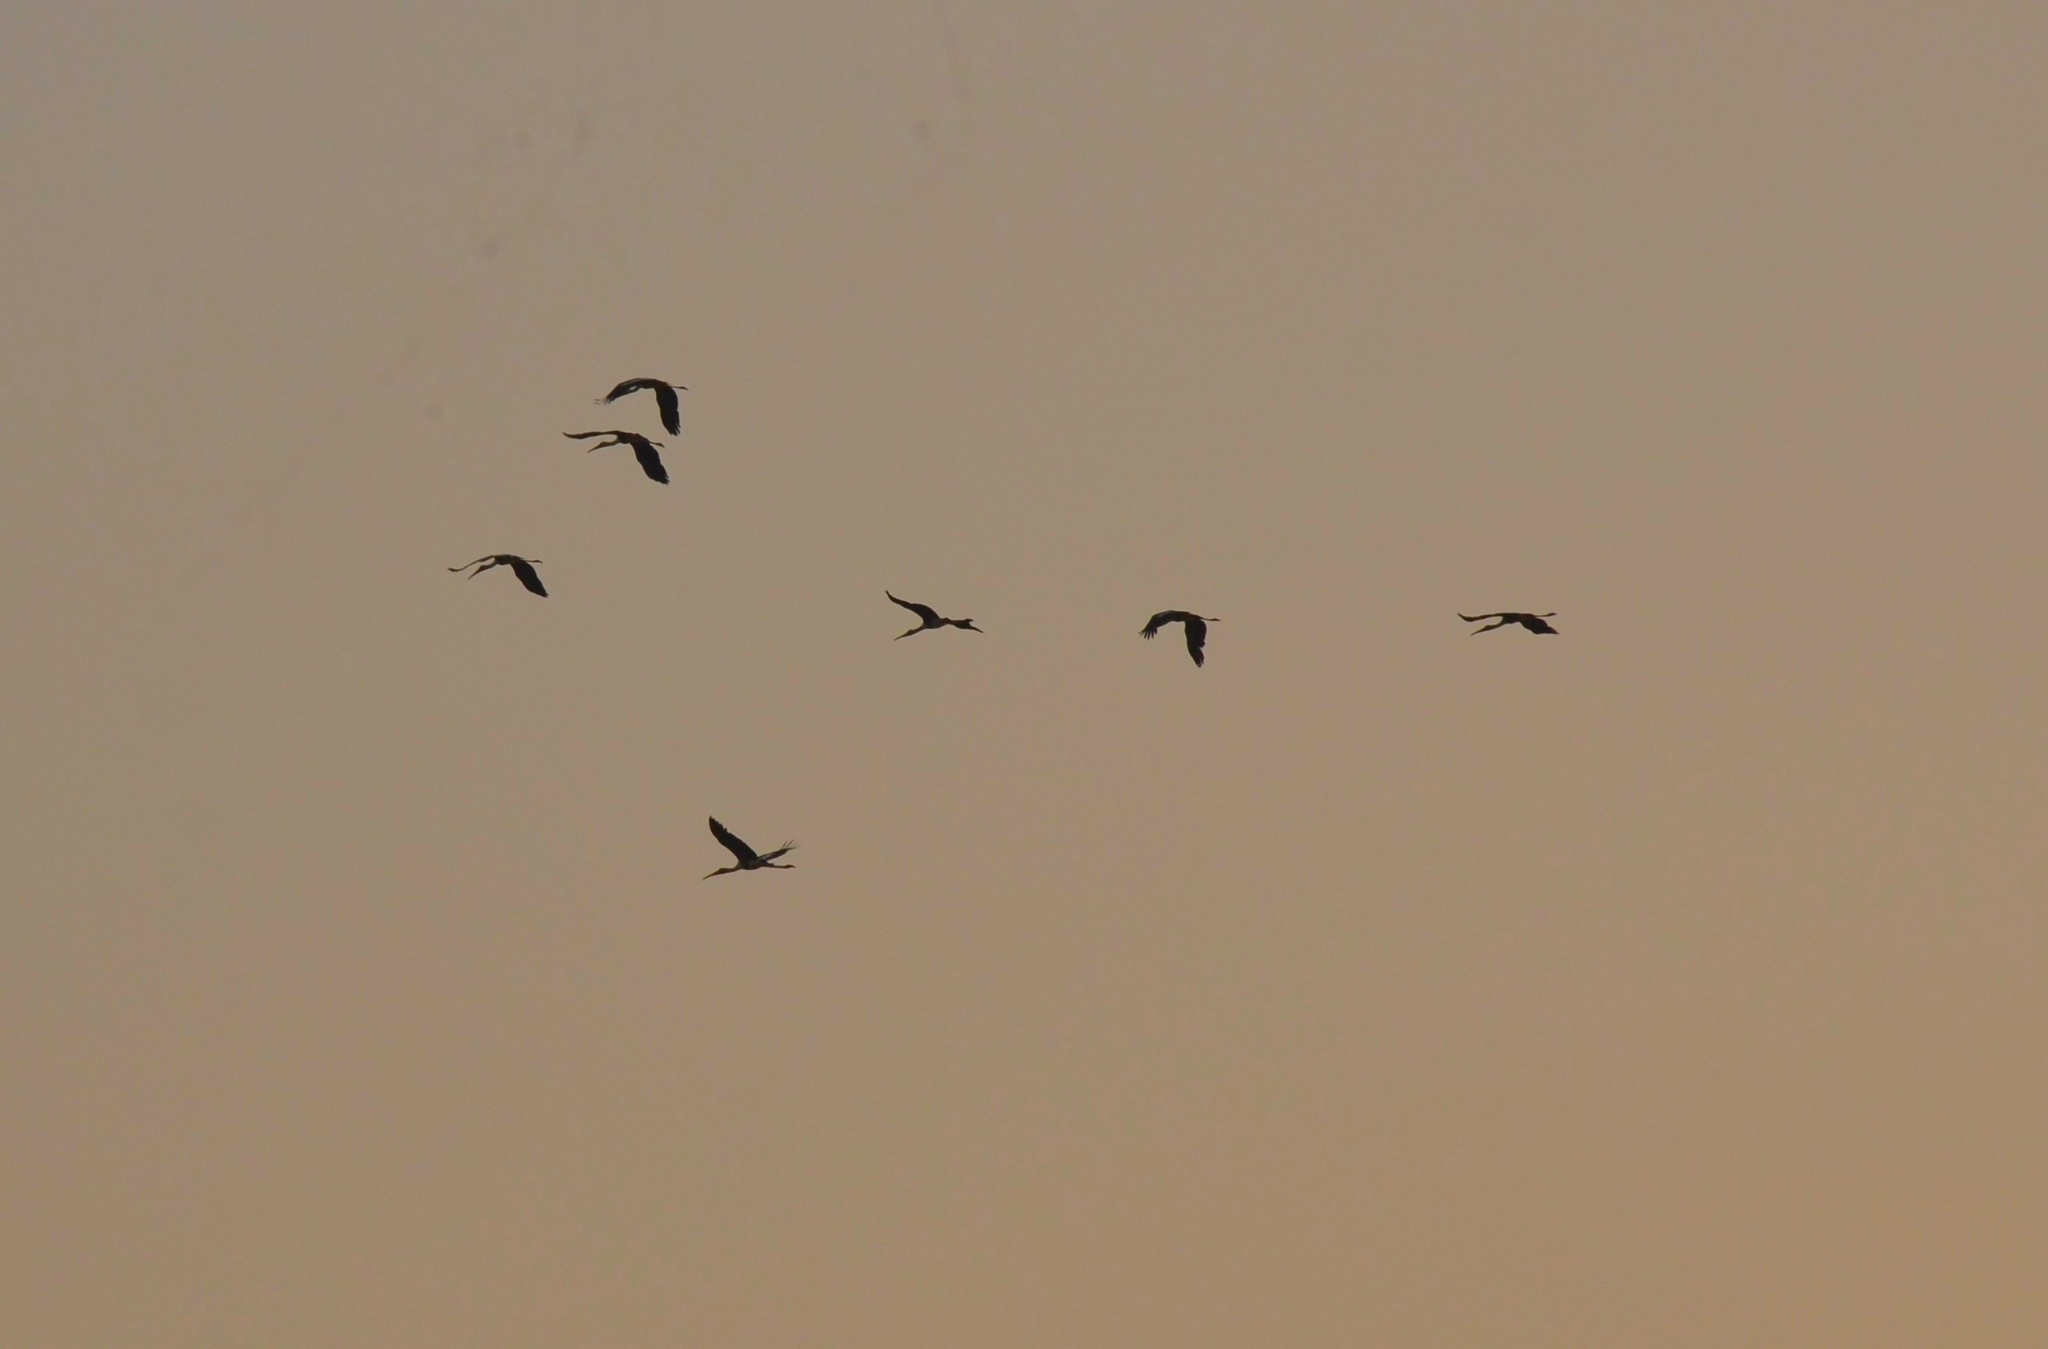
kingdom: Animalia
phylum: Chordata
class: Aves
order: Ciconiiformes
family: Ciconiidae
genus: Mycteria
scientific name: Mycteria leucocephala
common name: Painted stork
